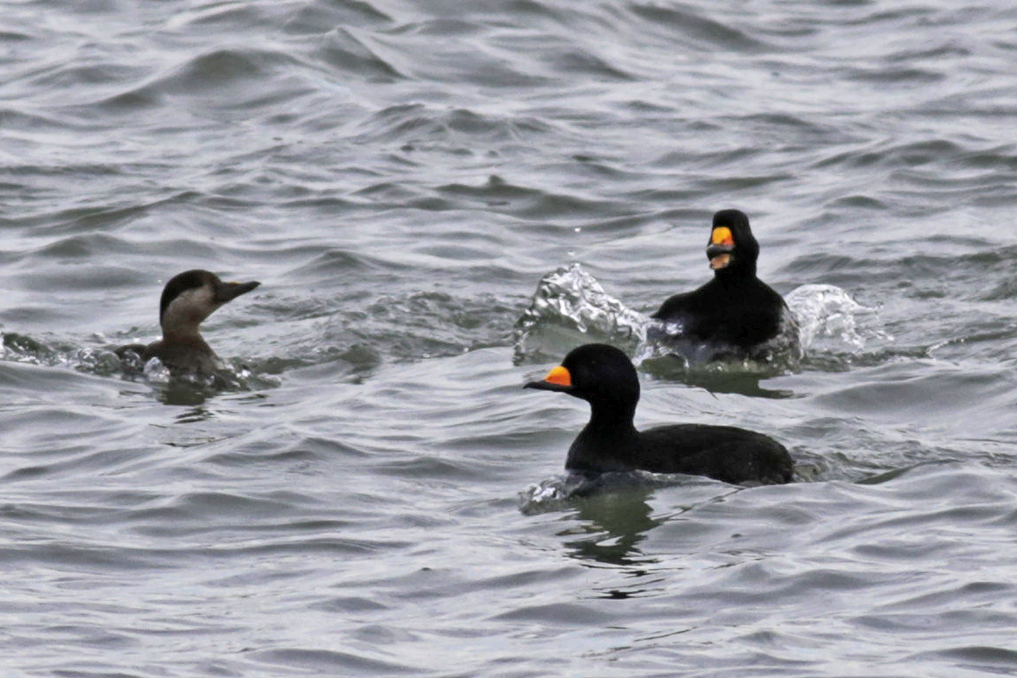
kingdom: Animalia
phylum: Chordata
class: Aves
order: Anseriformes
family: Anatidae
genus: Melanitta
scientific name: Melanitta americana
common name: Black scoter
